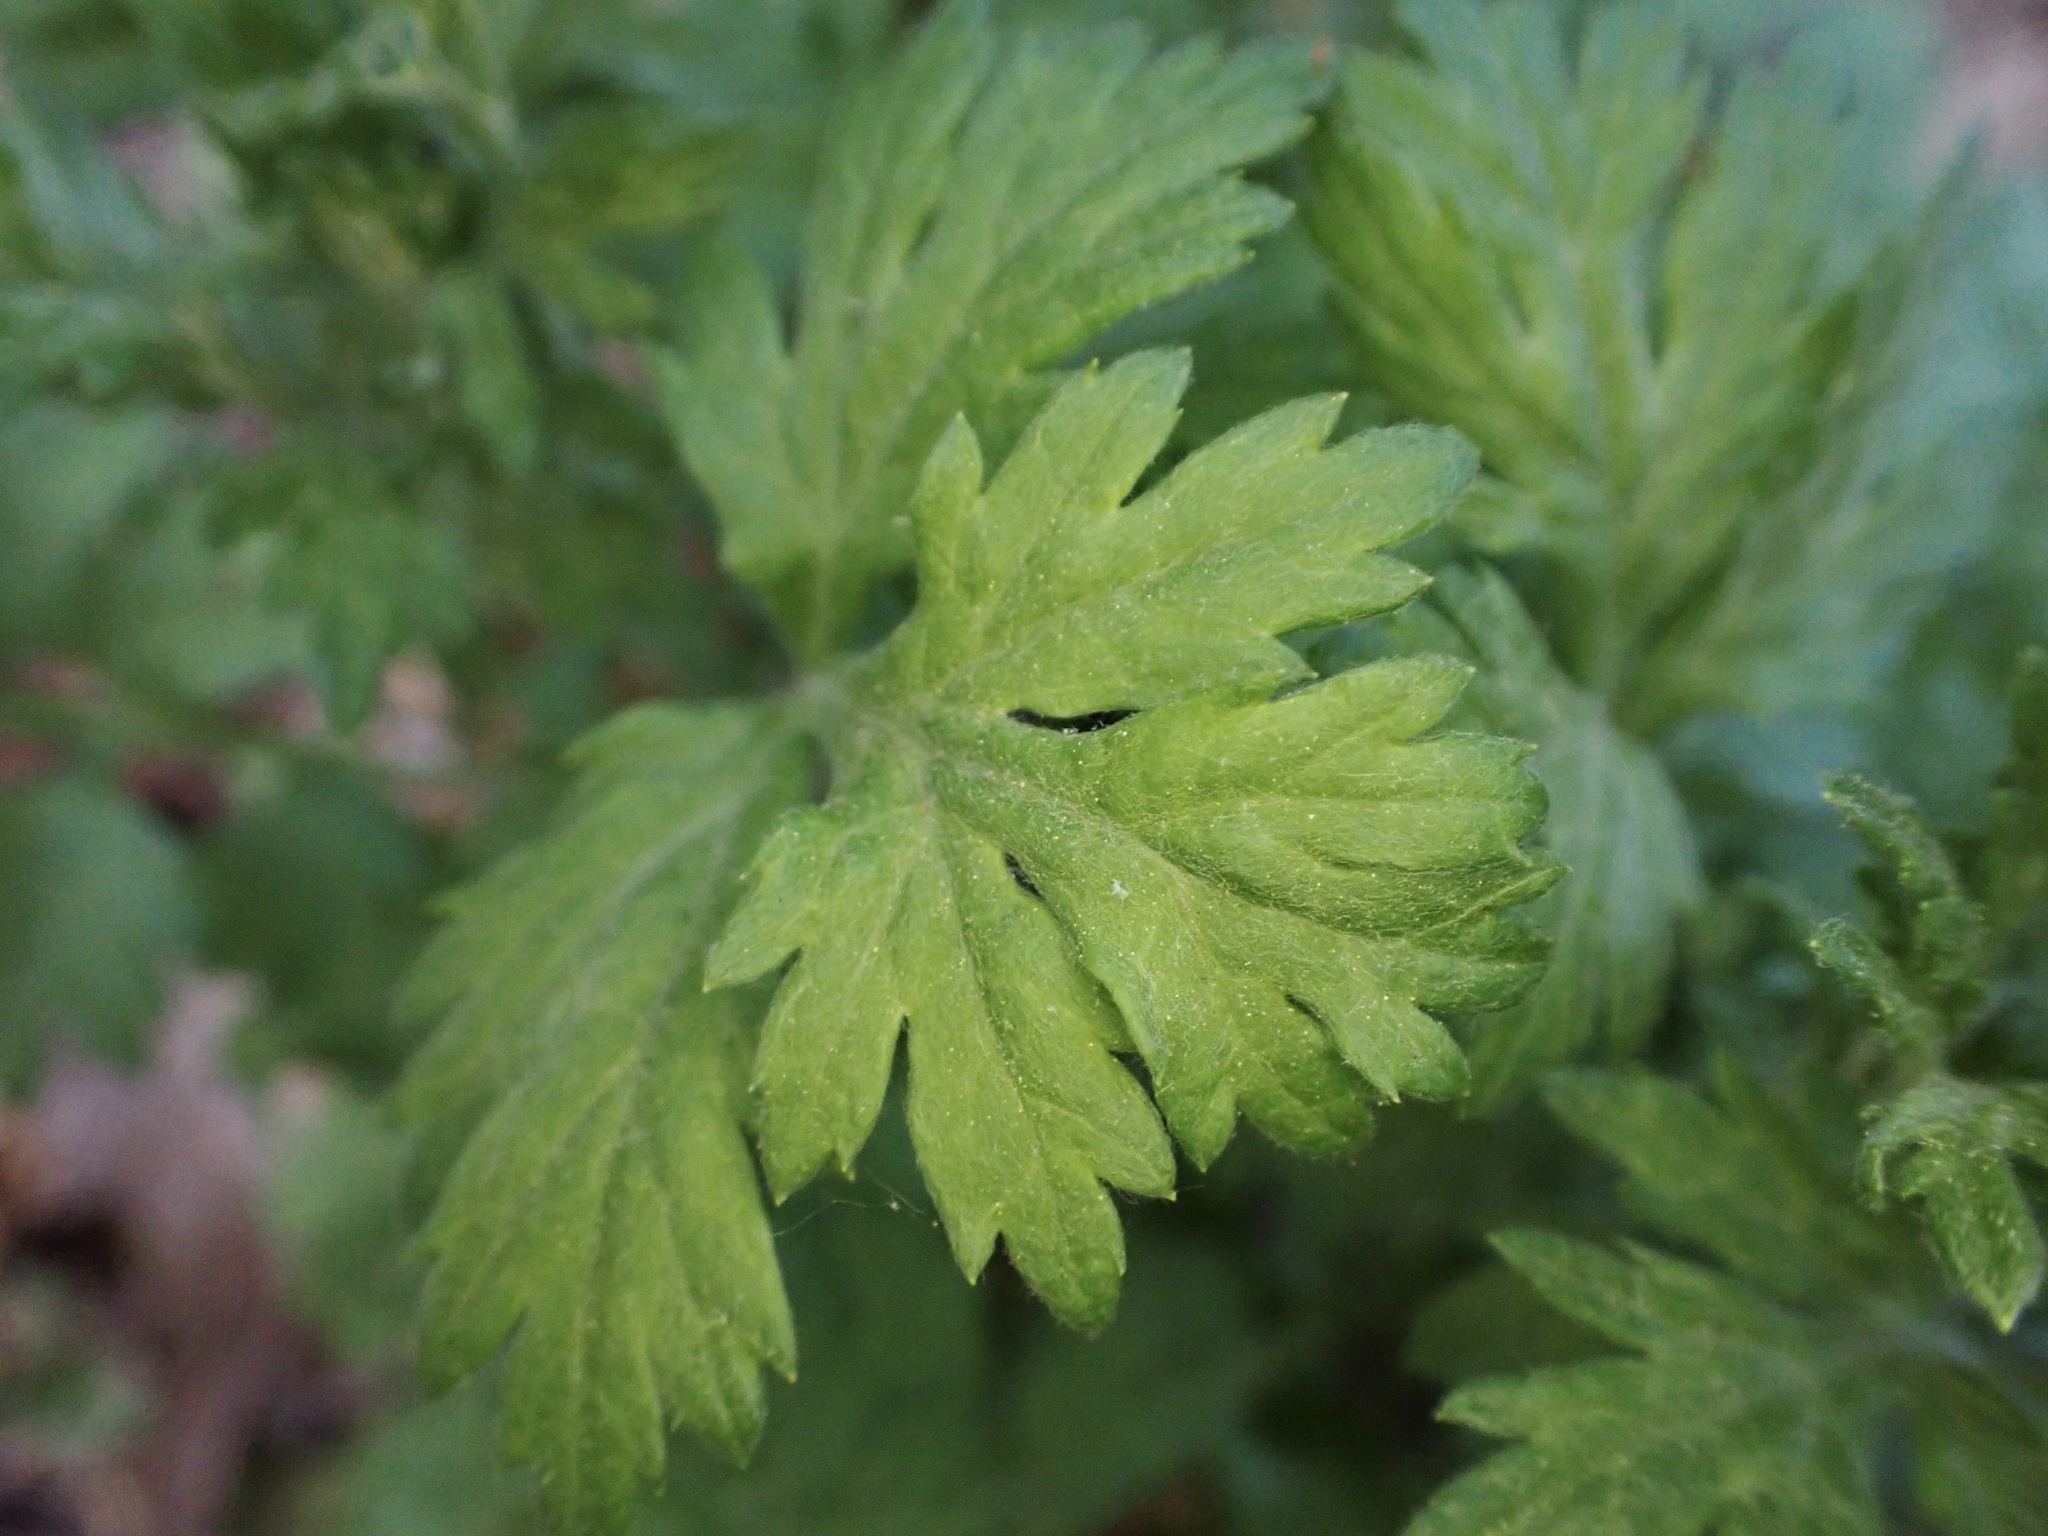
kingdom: Plantae
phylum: Tracheophyta
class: Magnoliopsida
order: Asterales
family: Asteraceae
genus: Artemisia
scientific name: Artemisia vulgaris
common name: Mugwort
